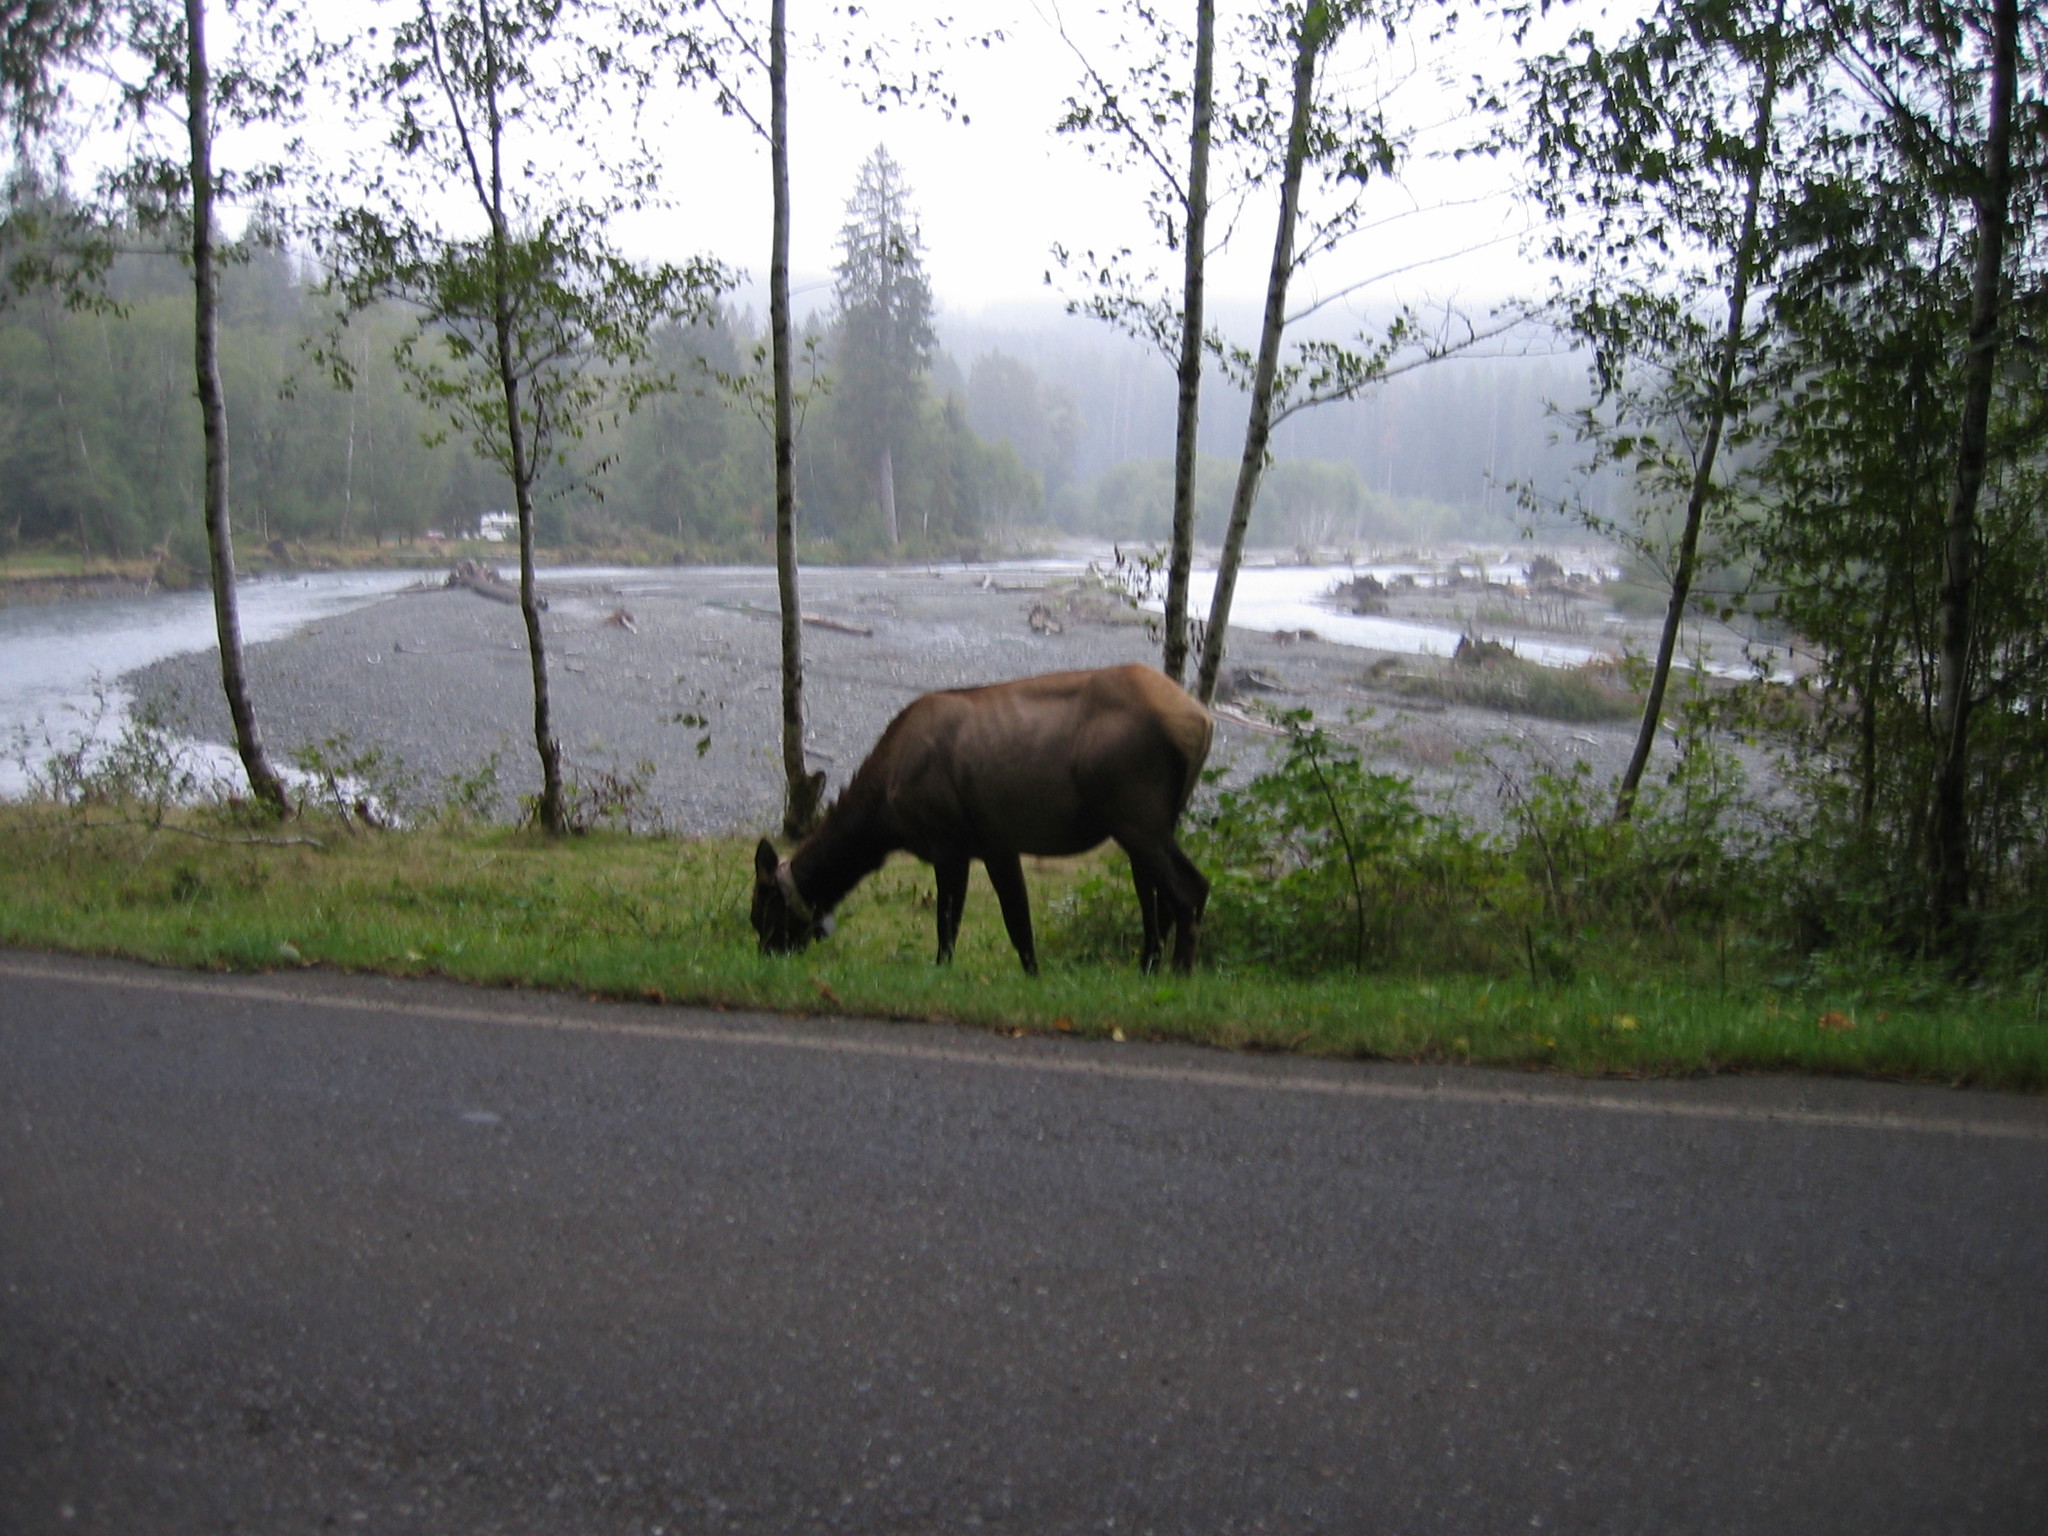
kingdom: Animalia
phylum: Chordata
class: Mammalia
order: Artiodactyla
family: Cervidae
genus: Cervus
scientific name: Cervus elaphus
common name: Red deer
